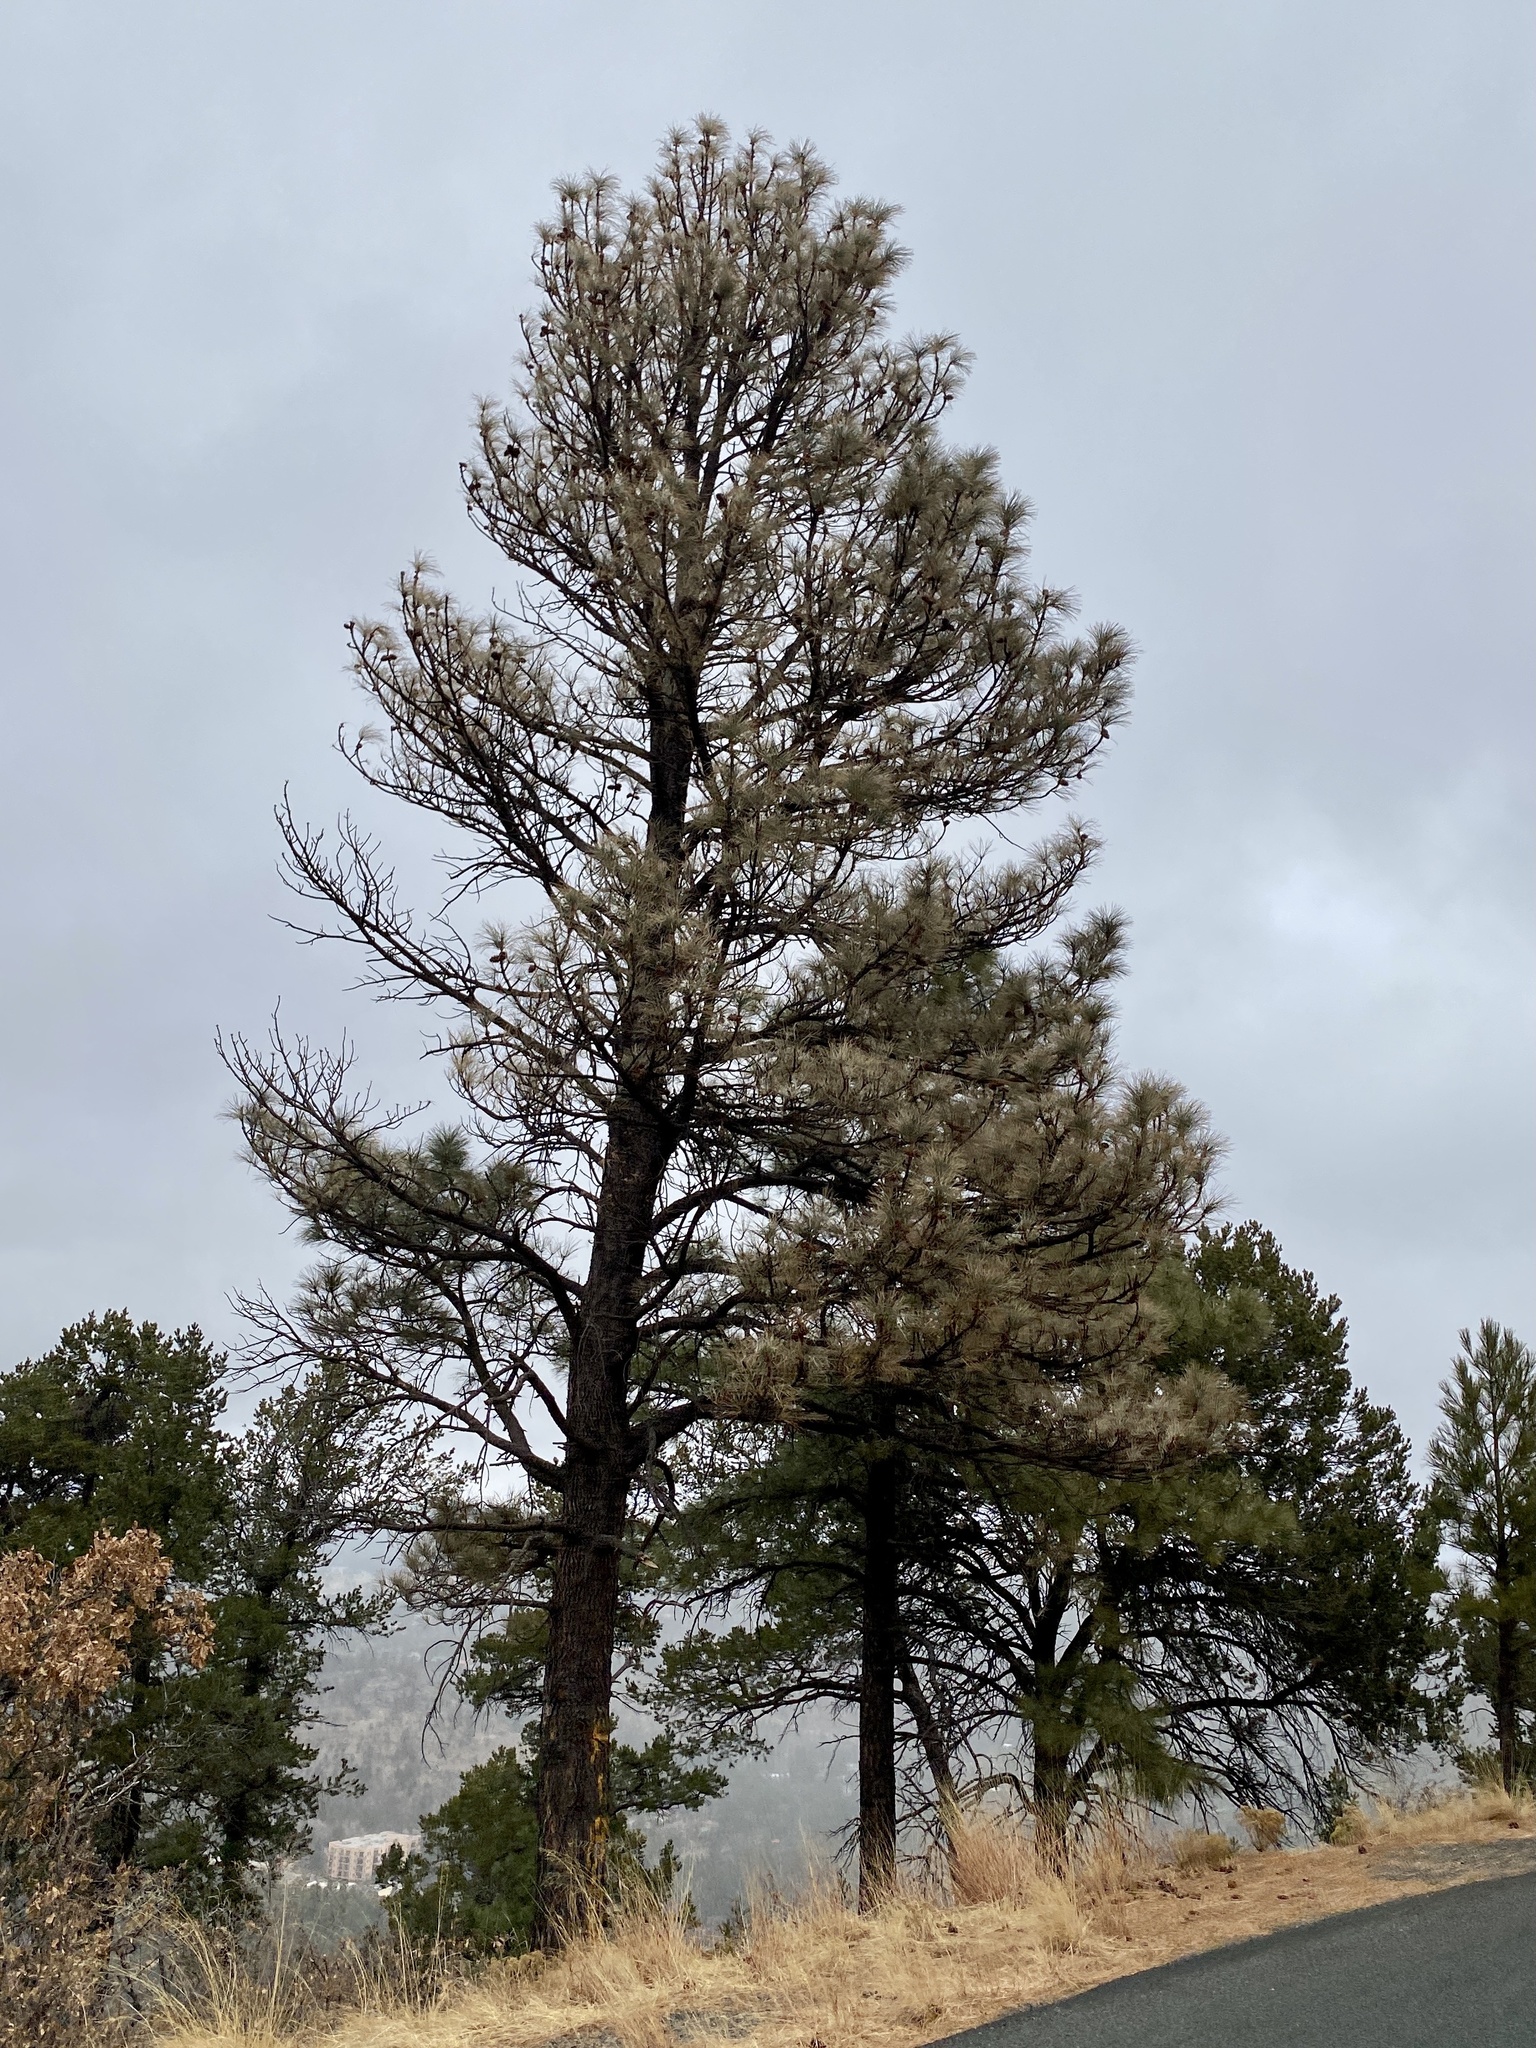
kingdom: Plantae
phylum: Tracheophyta
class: Pinopsida
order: Pinales
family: Pinaceae
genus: Pinus
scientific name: Pinus ponderosa
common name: Western yellow-pine
